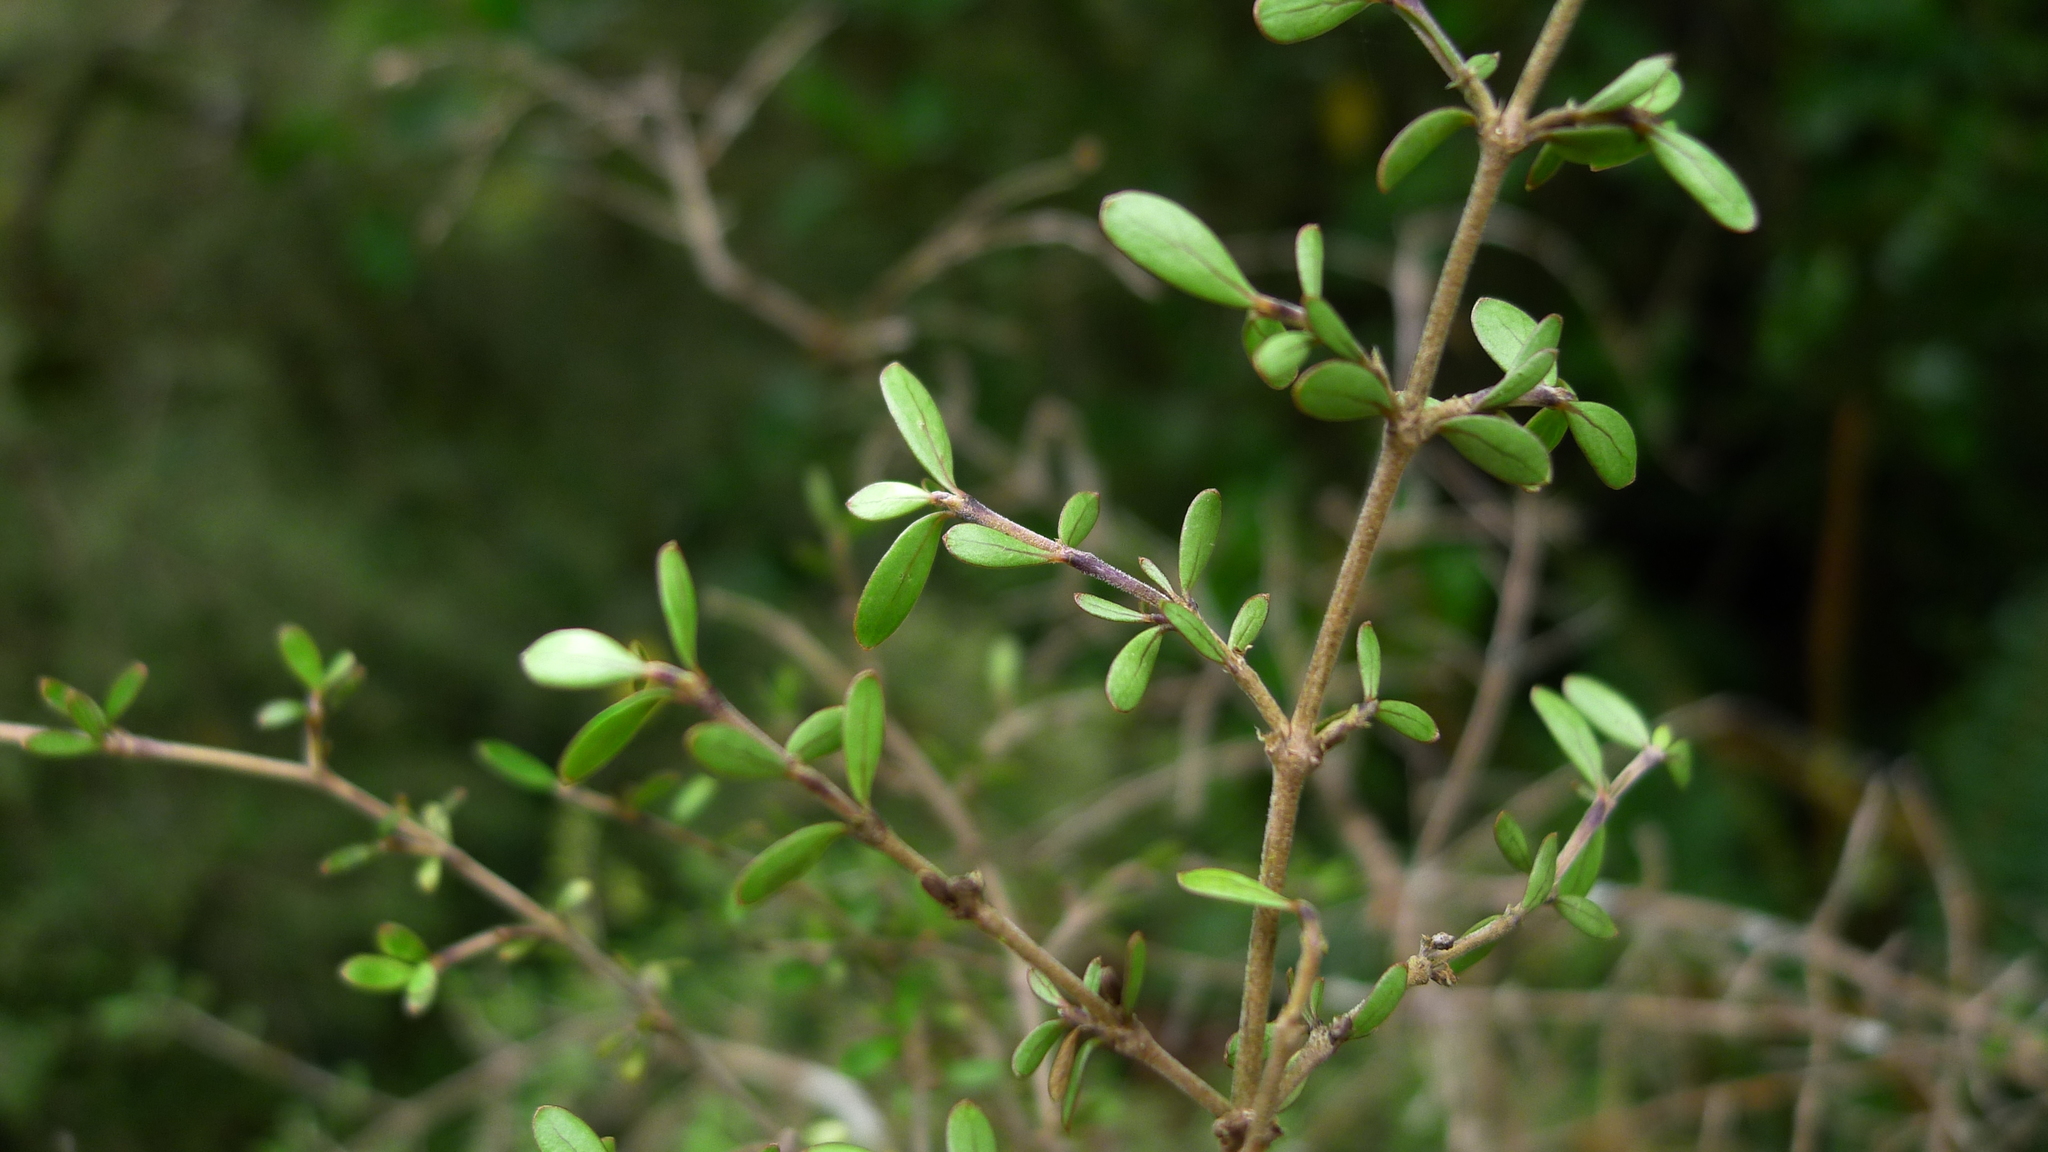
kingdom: Plantae
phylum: Tracheophyta
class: Magnoliopsida
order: Santalales
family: Viscaceae
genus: Korthalsella
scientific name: Korthalsella clavata
